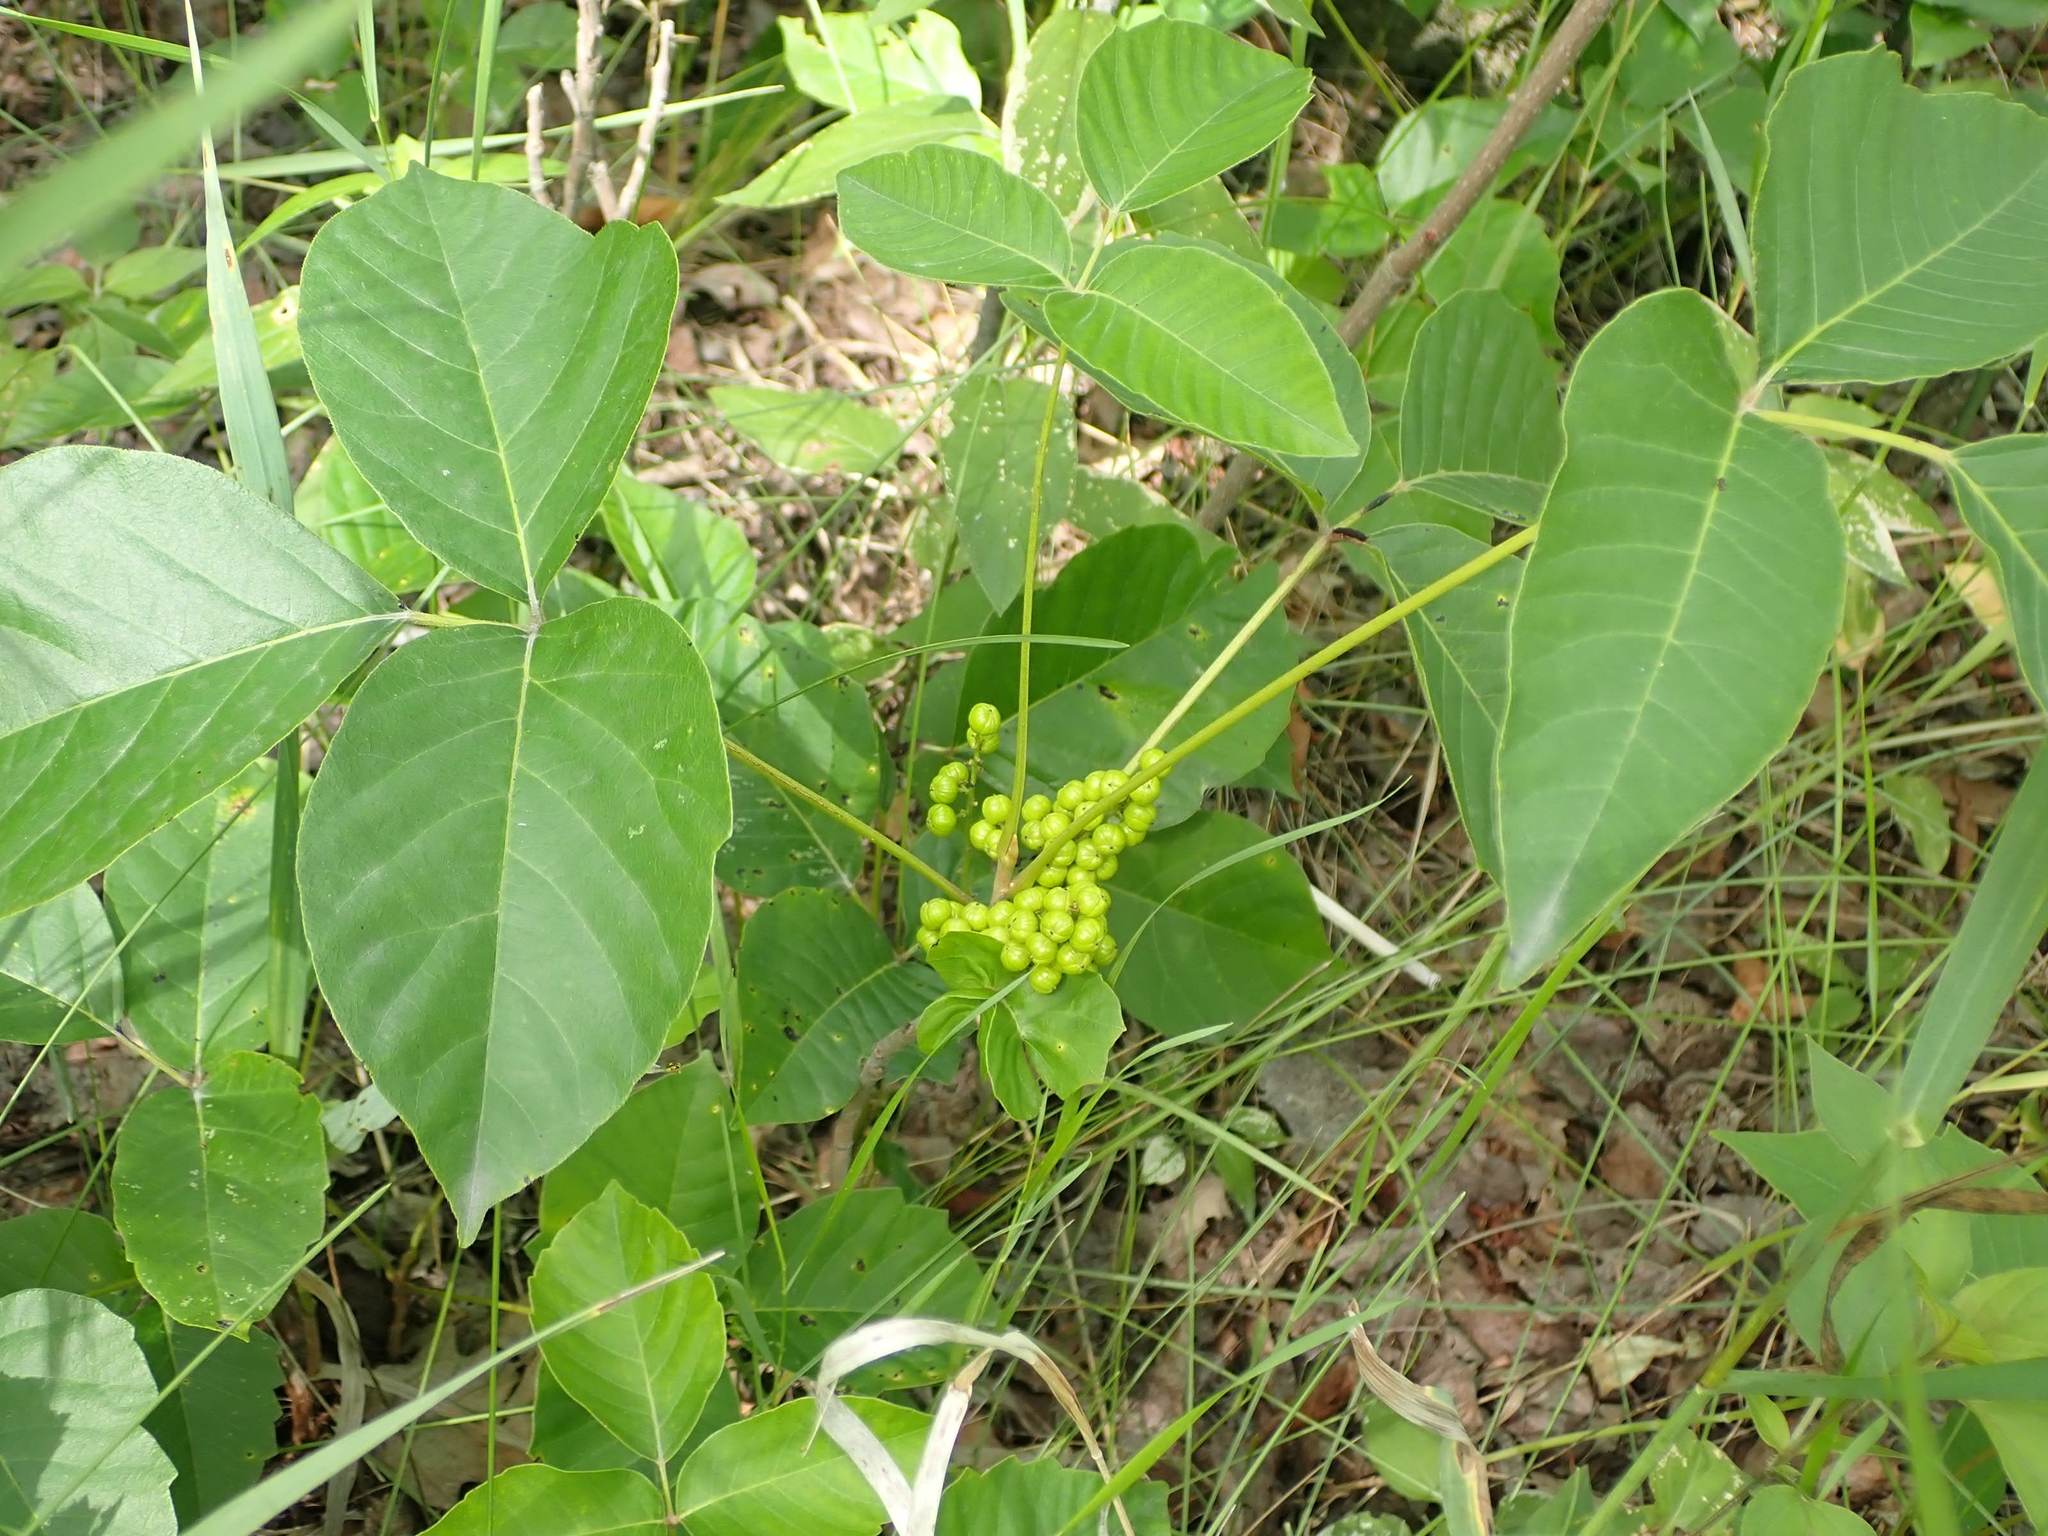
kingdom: Plantae
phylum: Tracheophyta
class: Magnoliopsida
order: Sapindales
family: Anacardiaceae
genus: Toxicodendron
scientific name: Toxicodendron rydbergii
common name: Rydberg's poison-ivy
